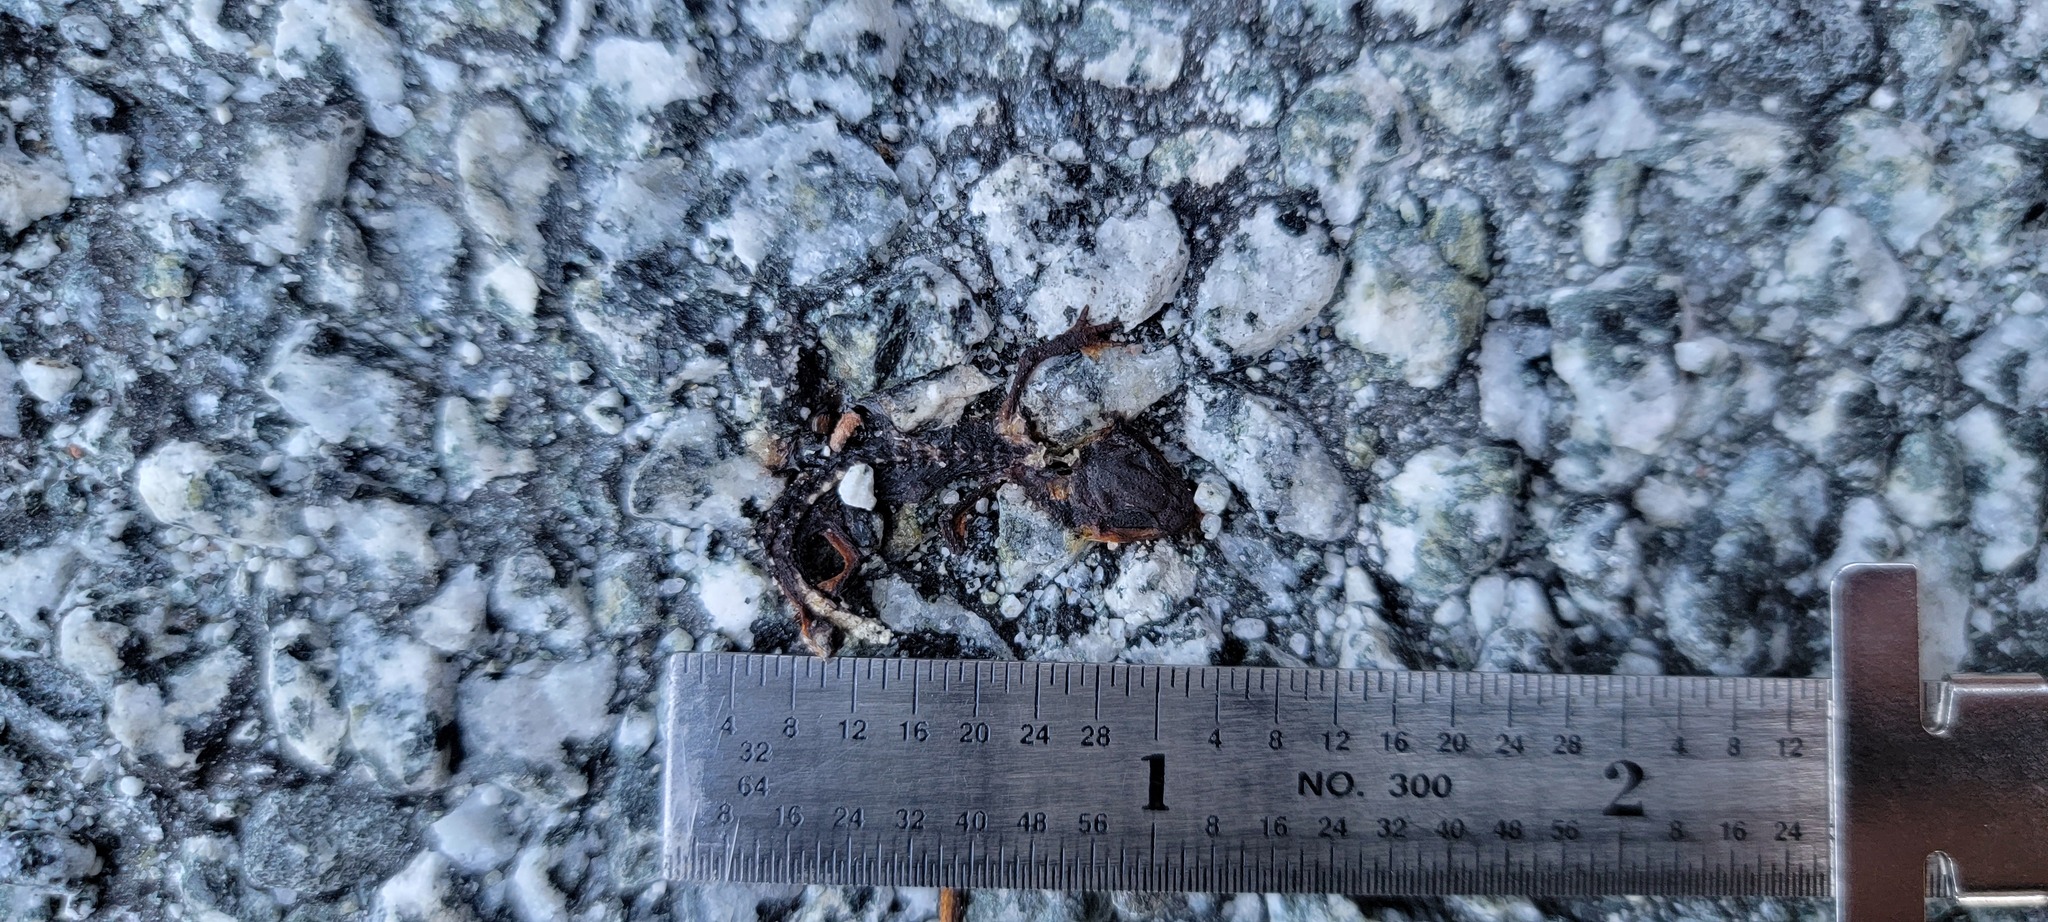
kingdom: Animalia
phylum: Chordata
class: Amphibia
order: Caudata
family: Salamandridae
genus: Taricha
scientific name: Taricha
